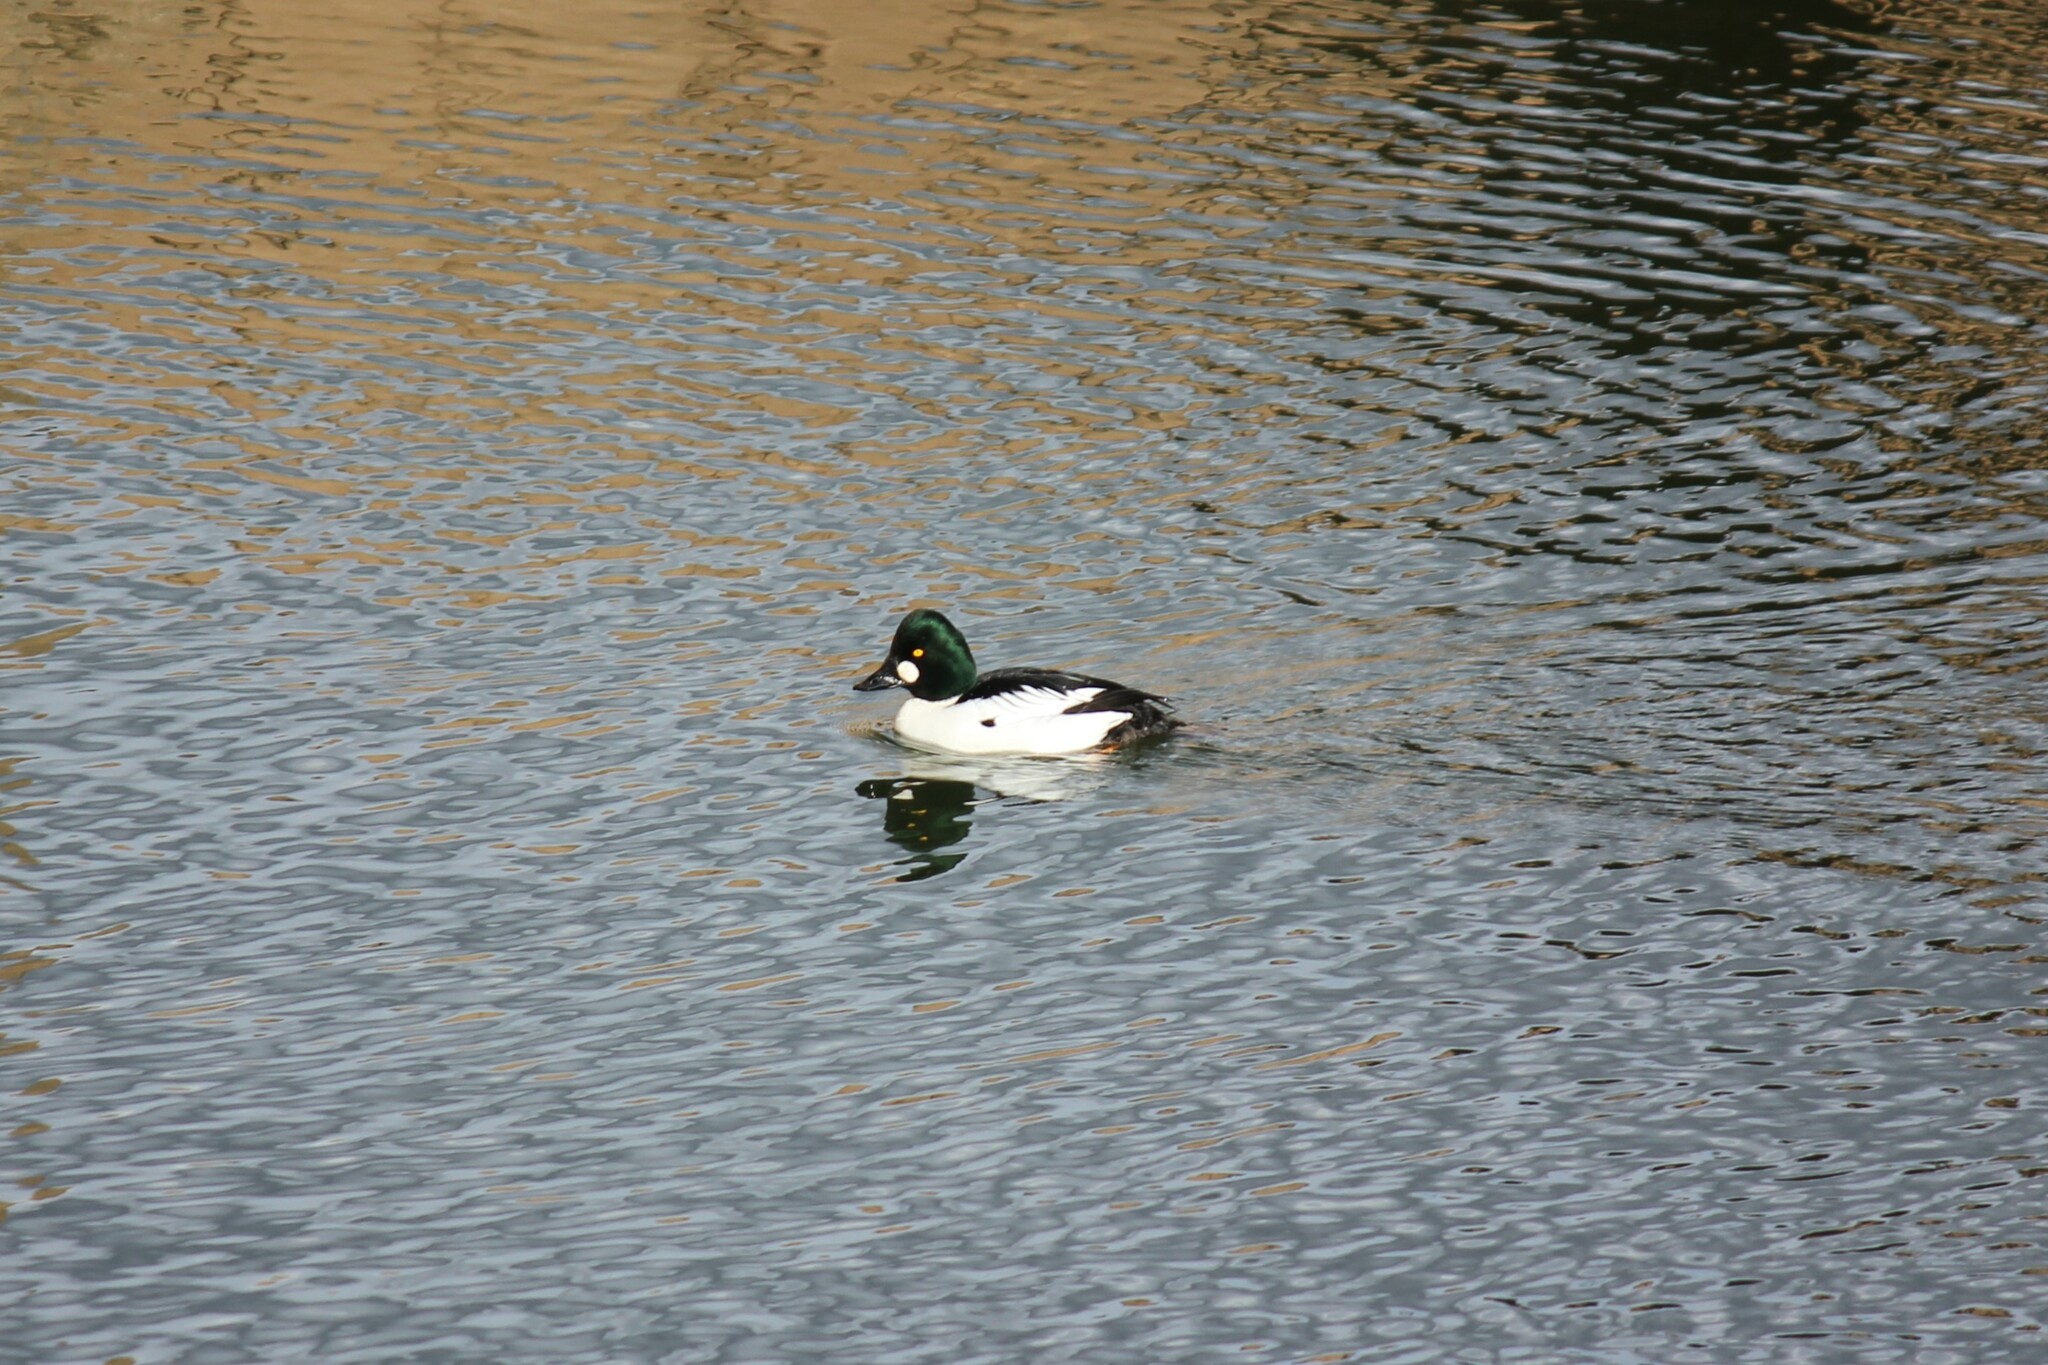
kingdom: Animalia
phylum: Chordata
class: Aves
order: Anseriformes
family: Anatidae
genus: Bucephala
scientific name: Bucephala clangula
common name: Common goldeneye
